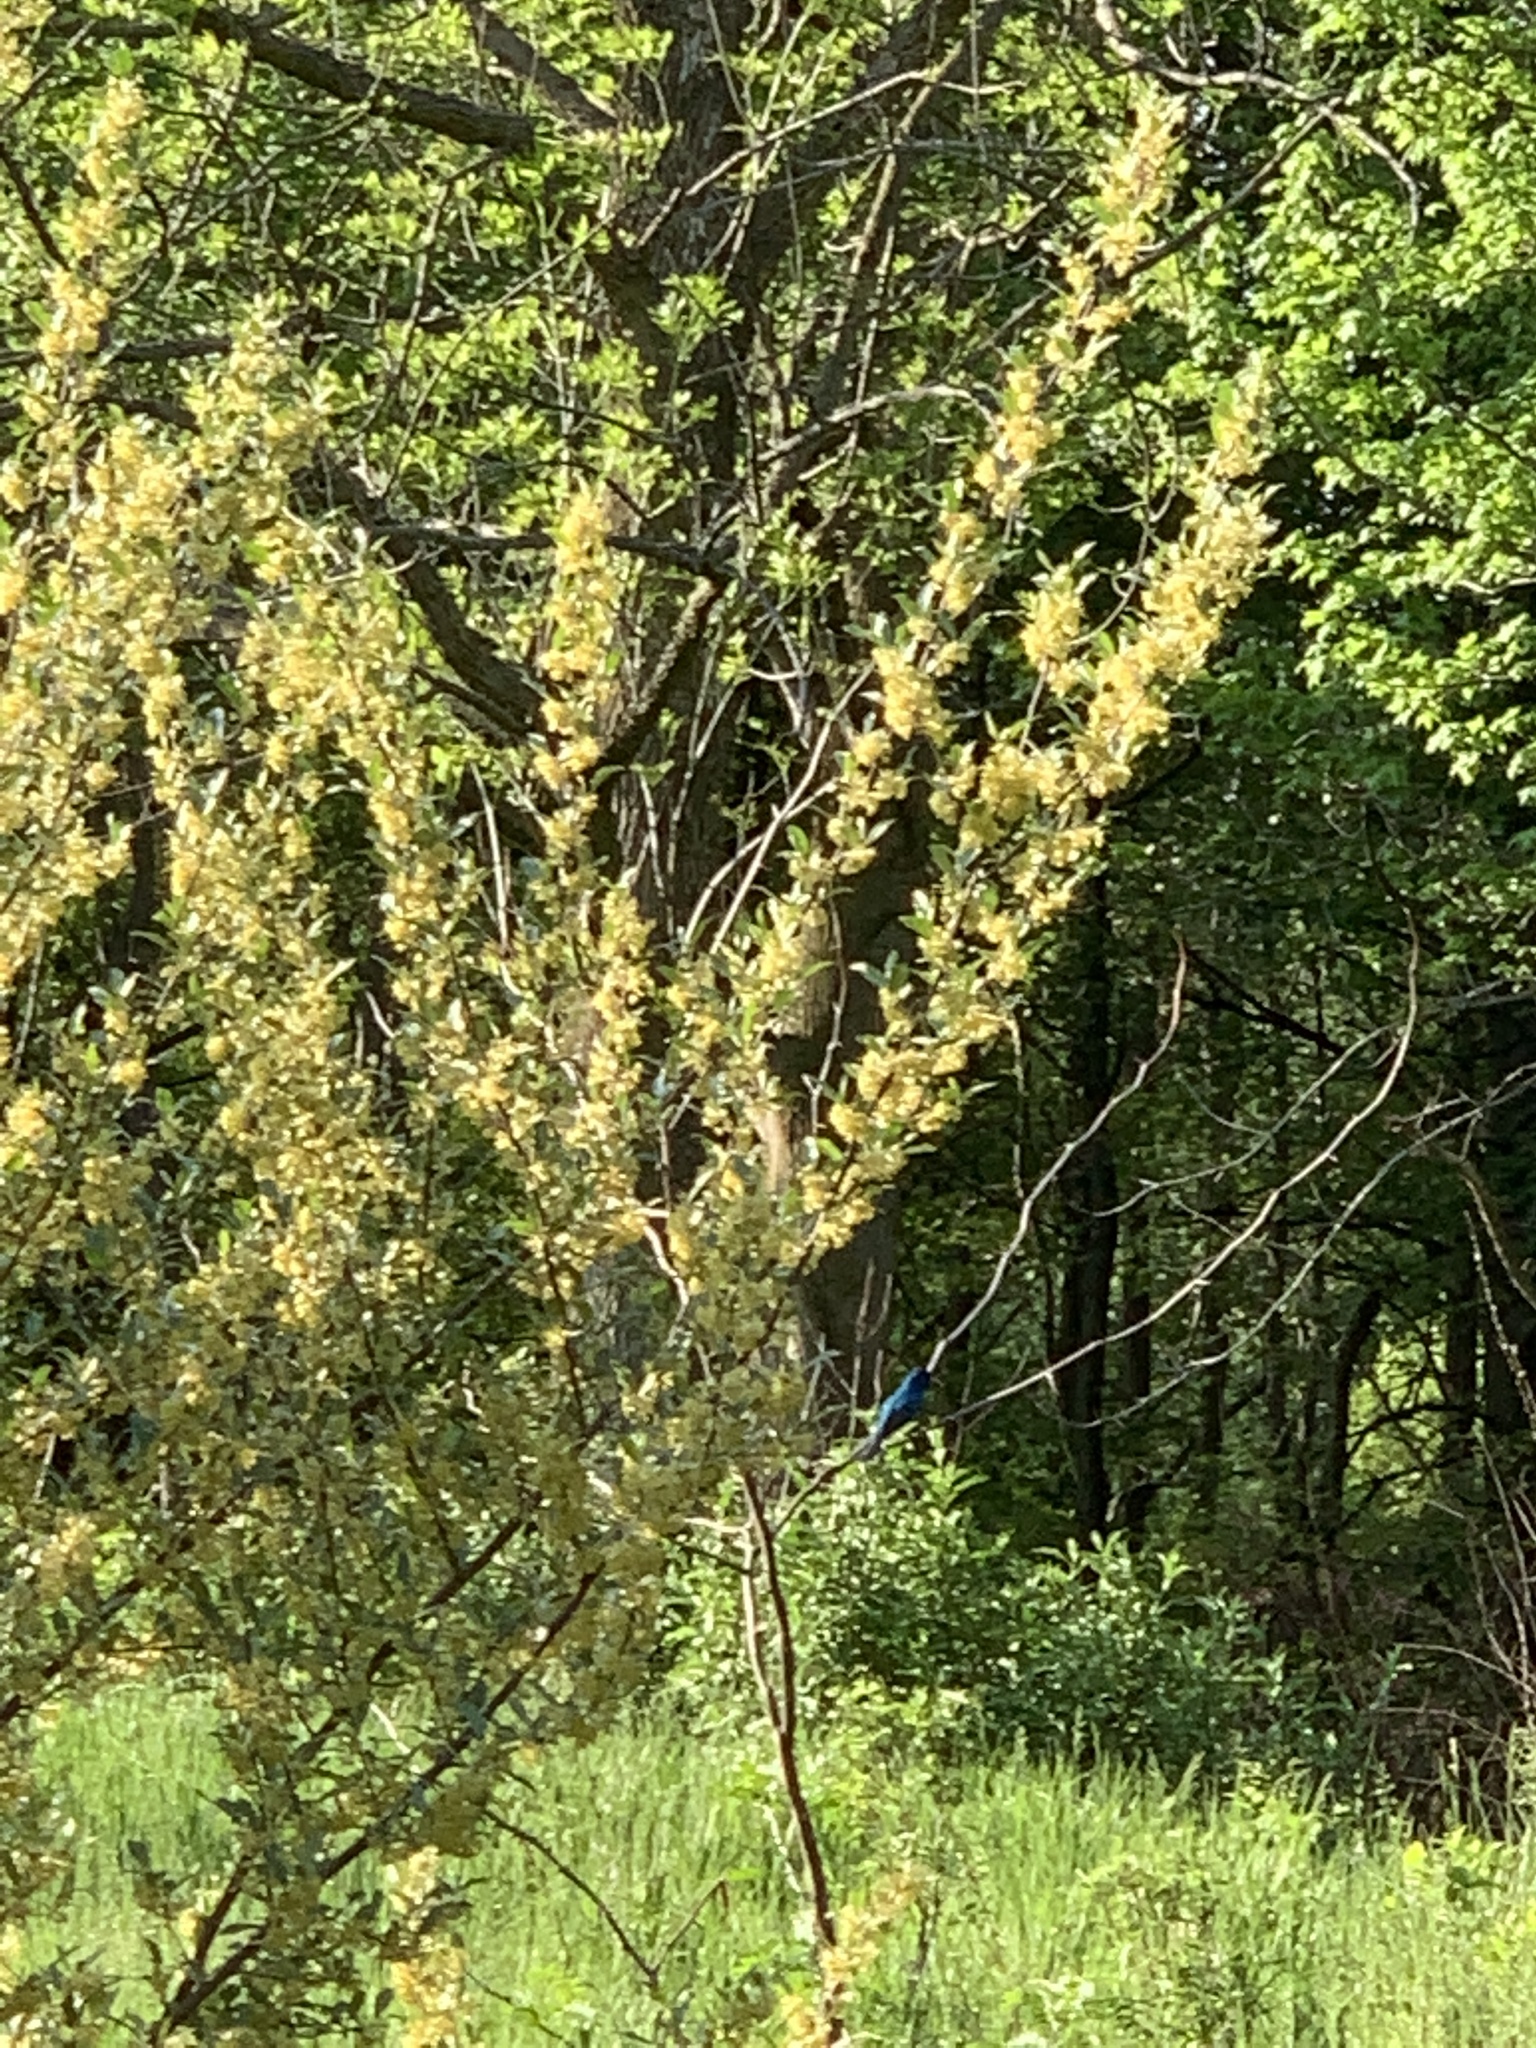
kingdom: Animalia
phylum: Chordata
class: Aves
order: Passeriformes
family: Cardinalidae
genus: Passerina
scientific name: Passerina cyanea
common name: Indigo bunting
